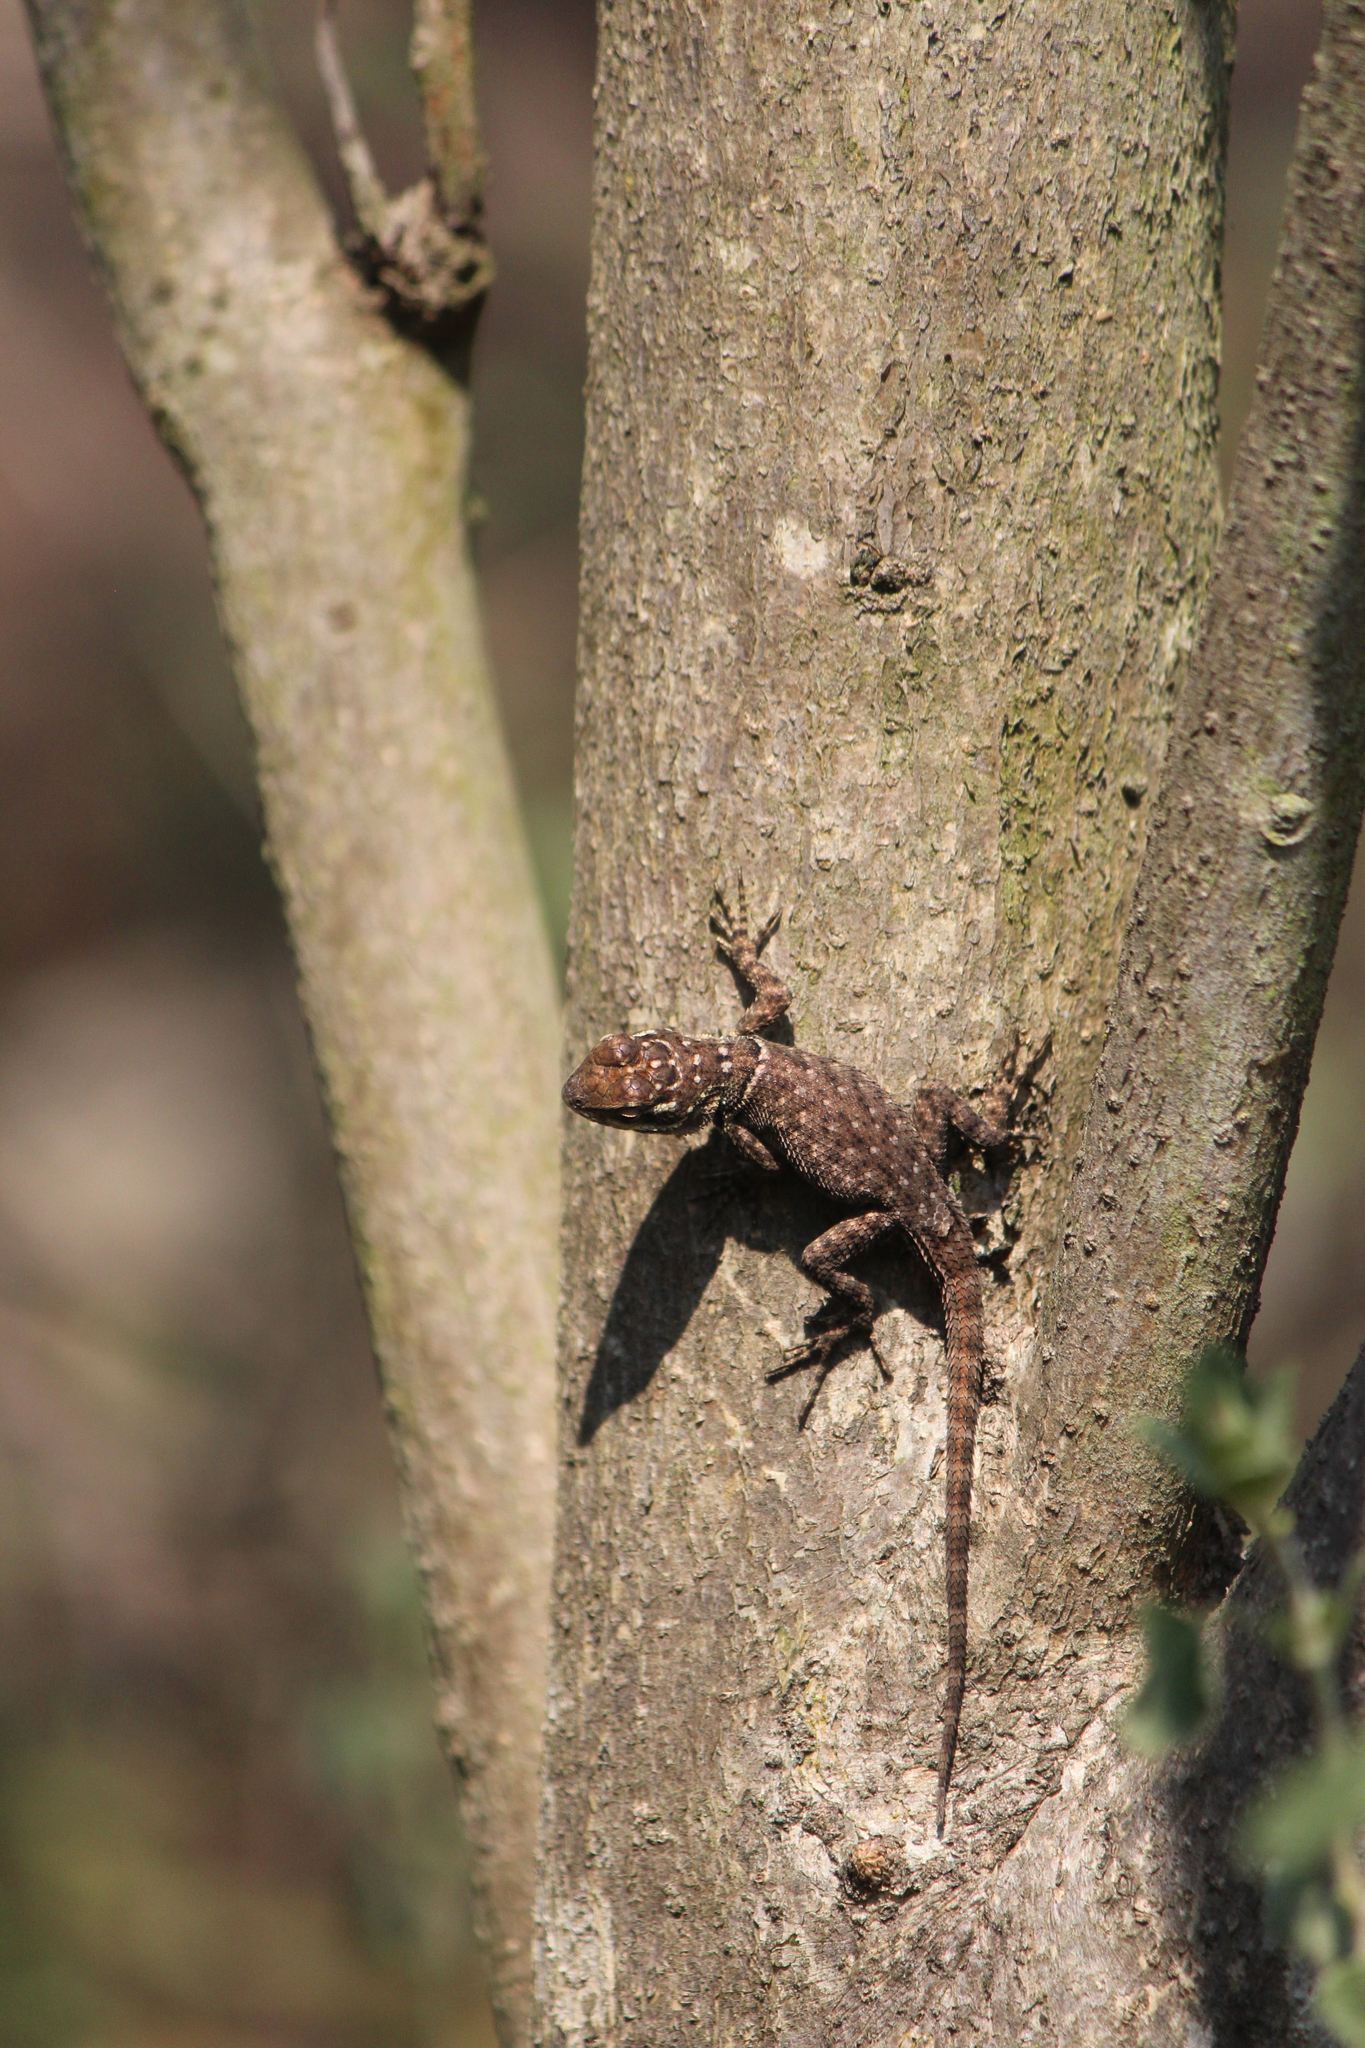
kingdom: Animalia
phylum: Chordata
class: Squamata
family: Phrynosomatidae
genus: Sceloporus
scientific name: Sceloporus minor
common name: Minor lizard
